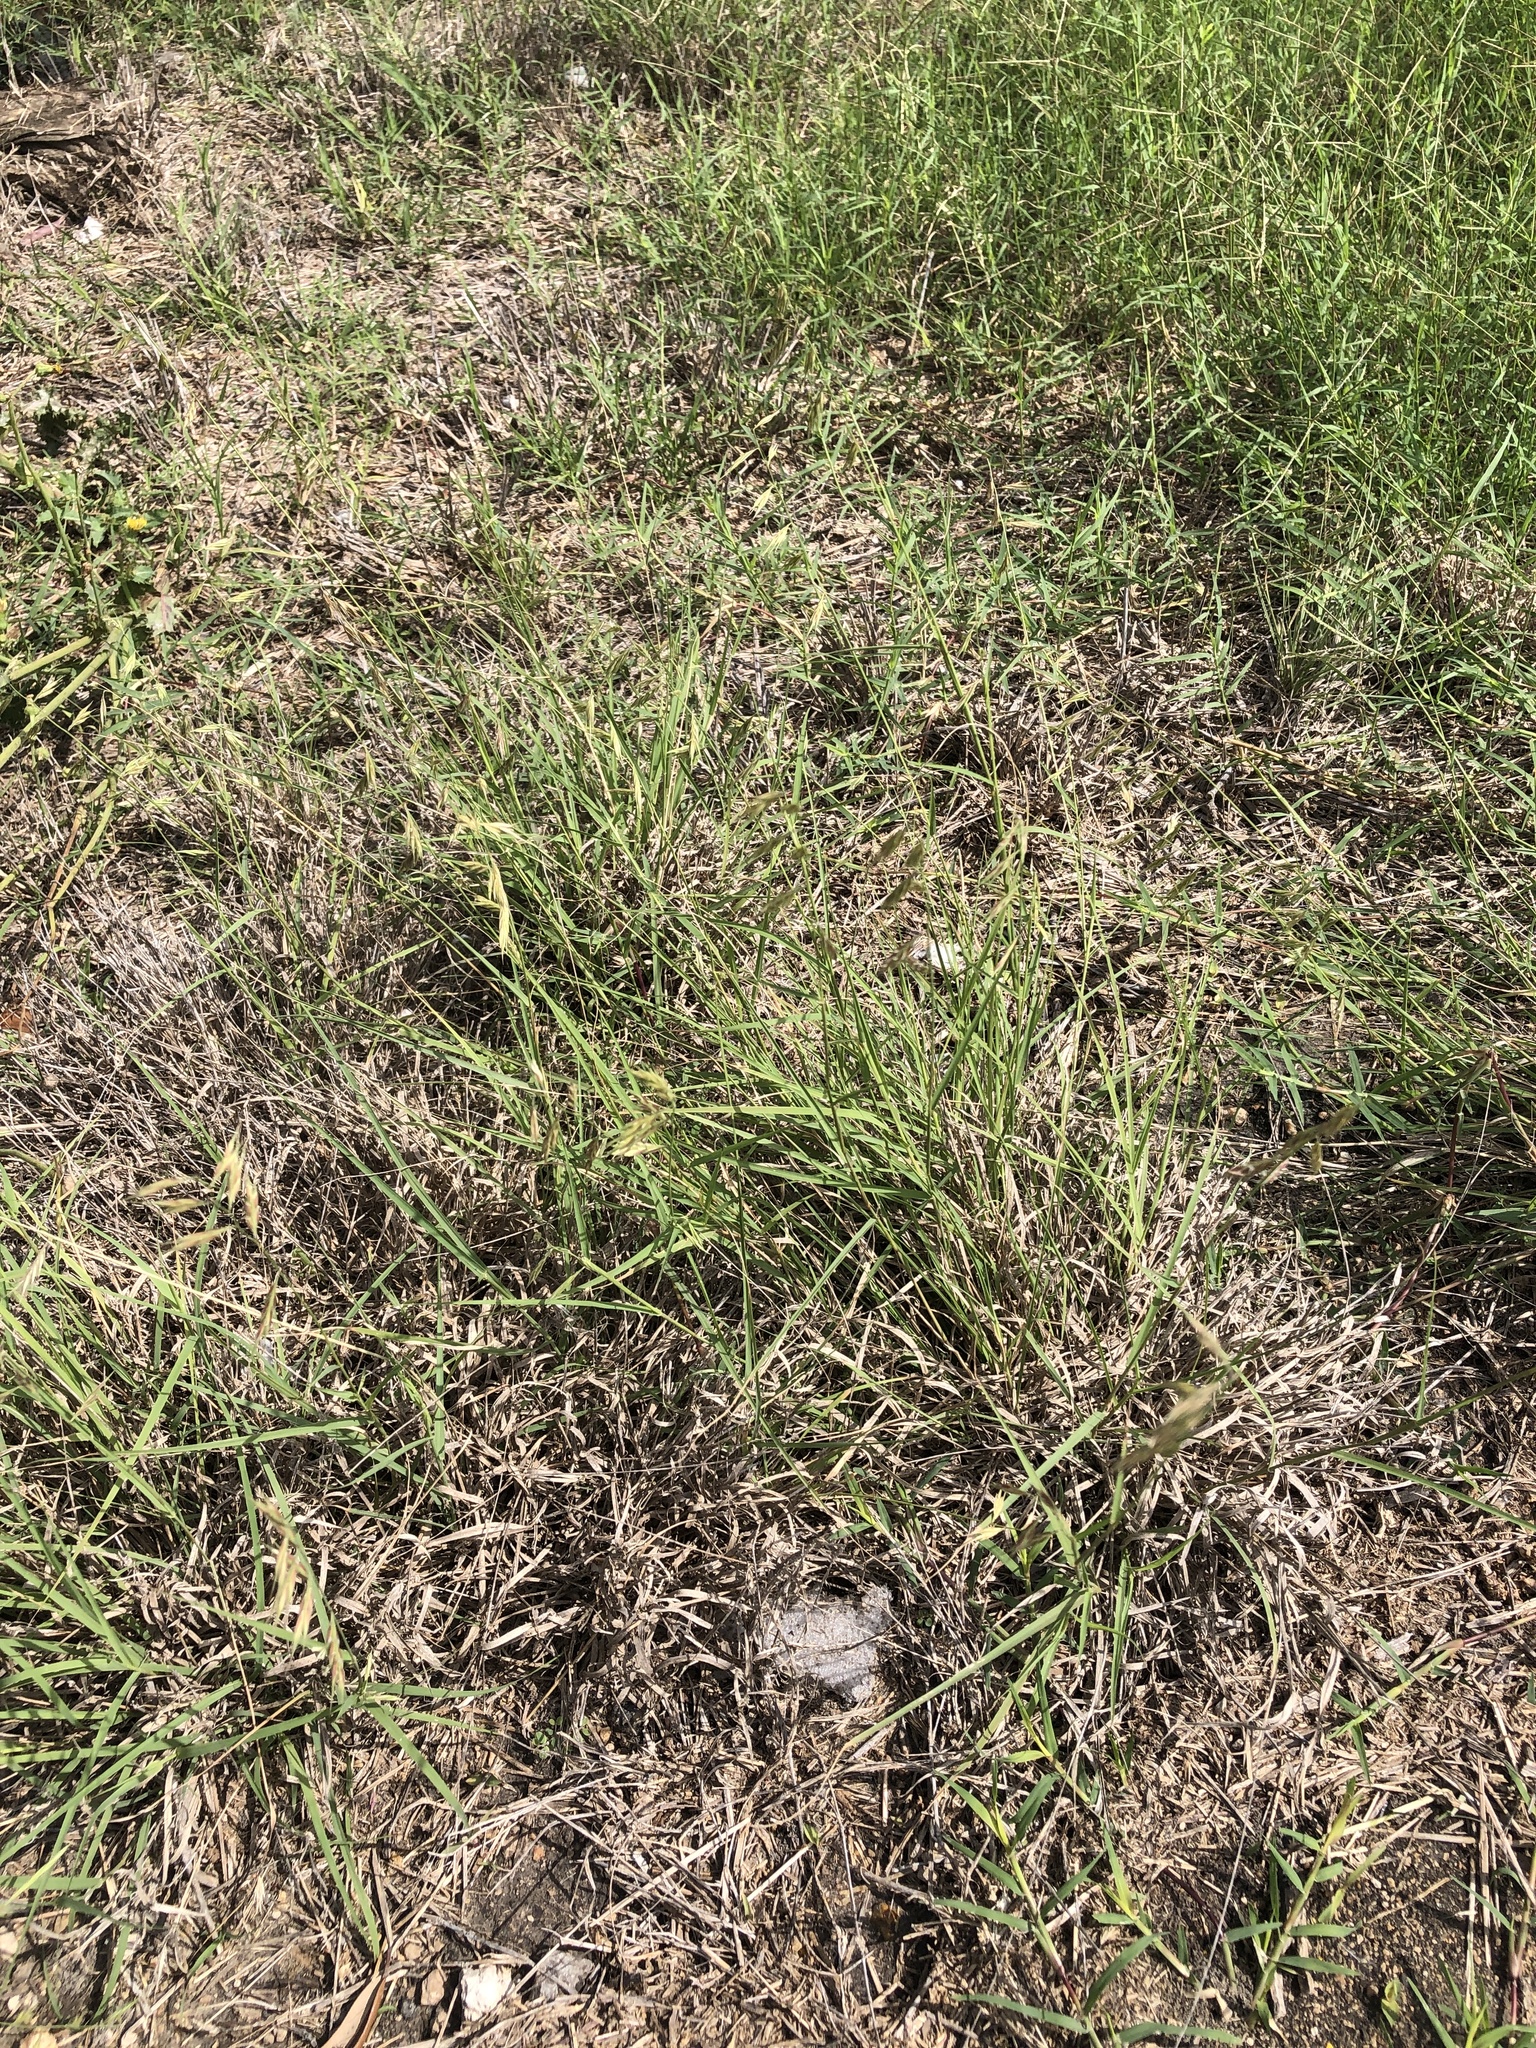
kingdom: Plantae
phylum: Tracheophyta
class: Liliopsida
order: Poales
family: Poaceae
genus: Bouteloua
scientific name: Bouteloua repens
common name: Slender grama
